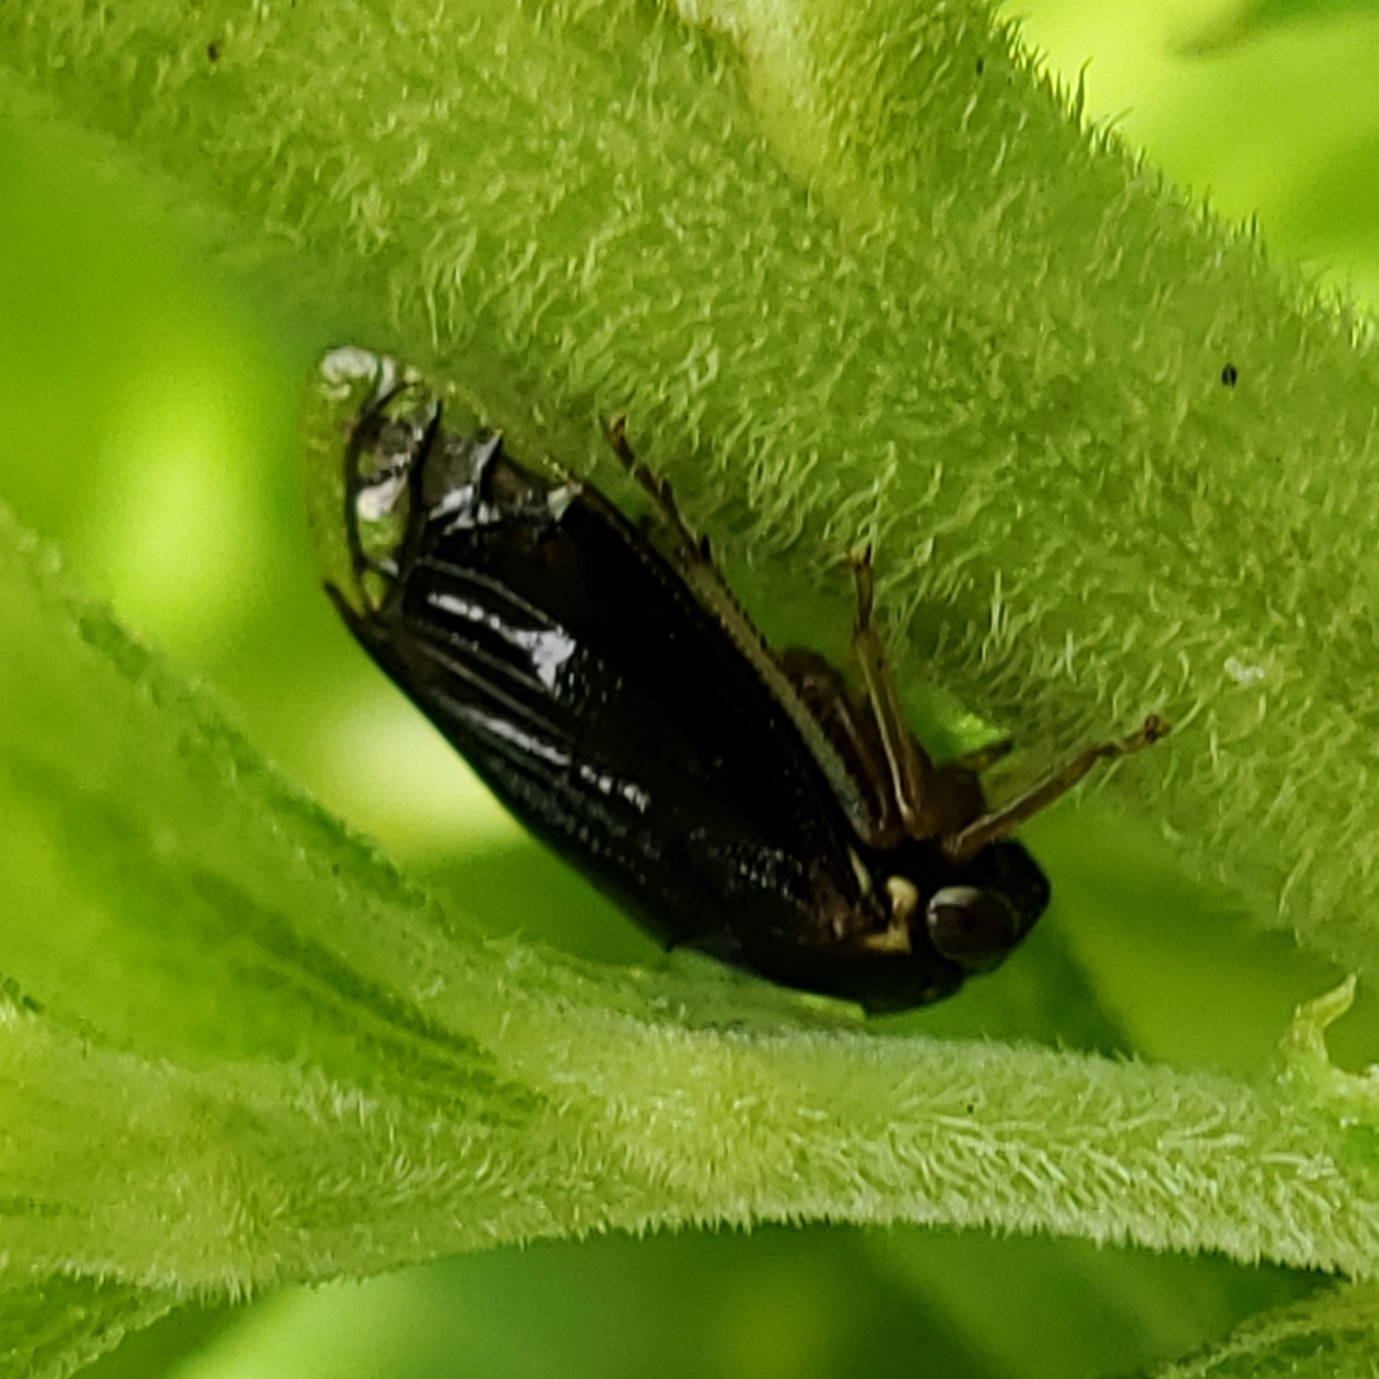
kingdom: Animalia
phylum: Arthropoda
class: Insecta
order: Hemiptera
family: Membracidae
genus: Acutalis
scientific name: Acutalis tartarea
